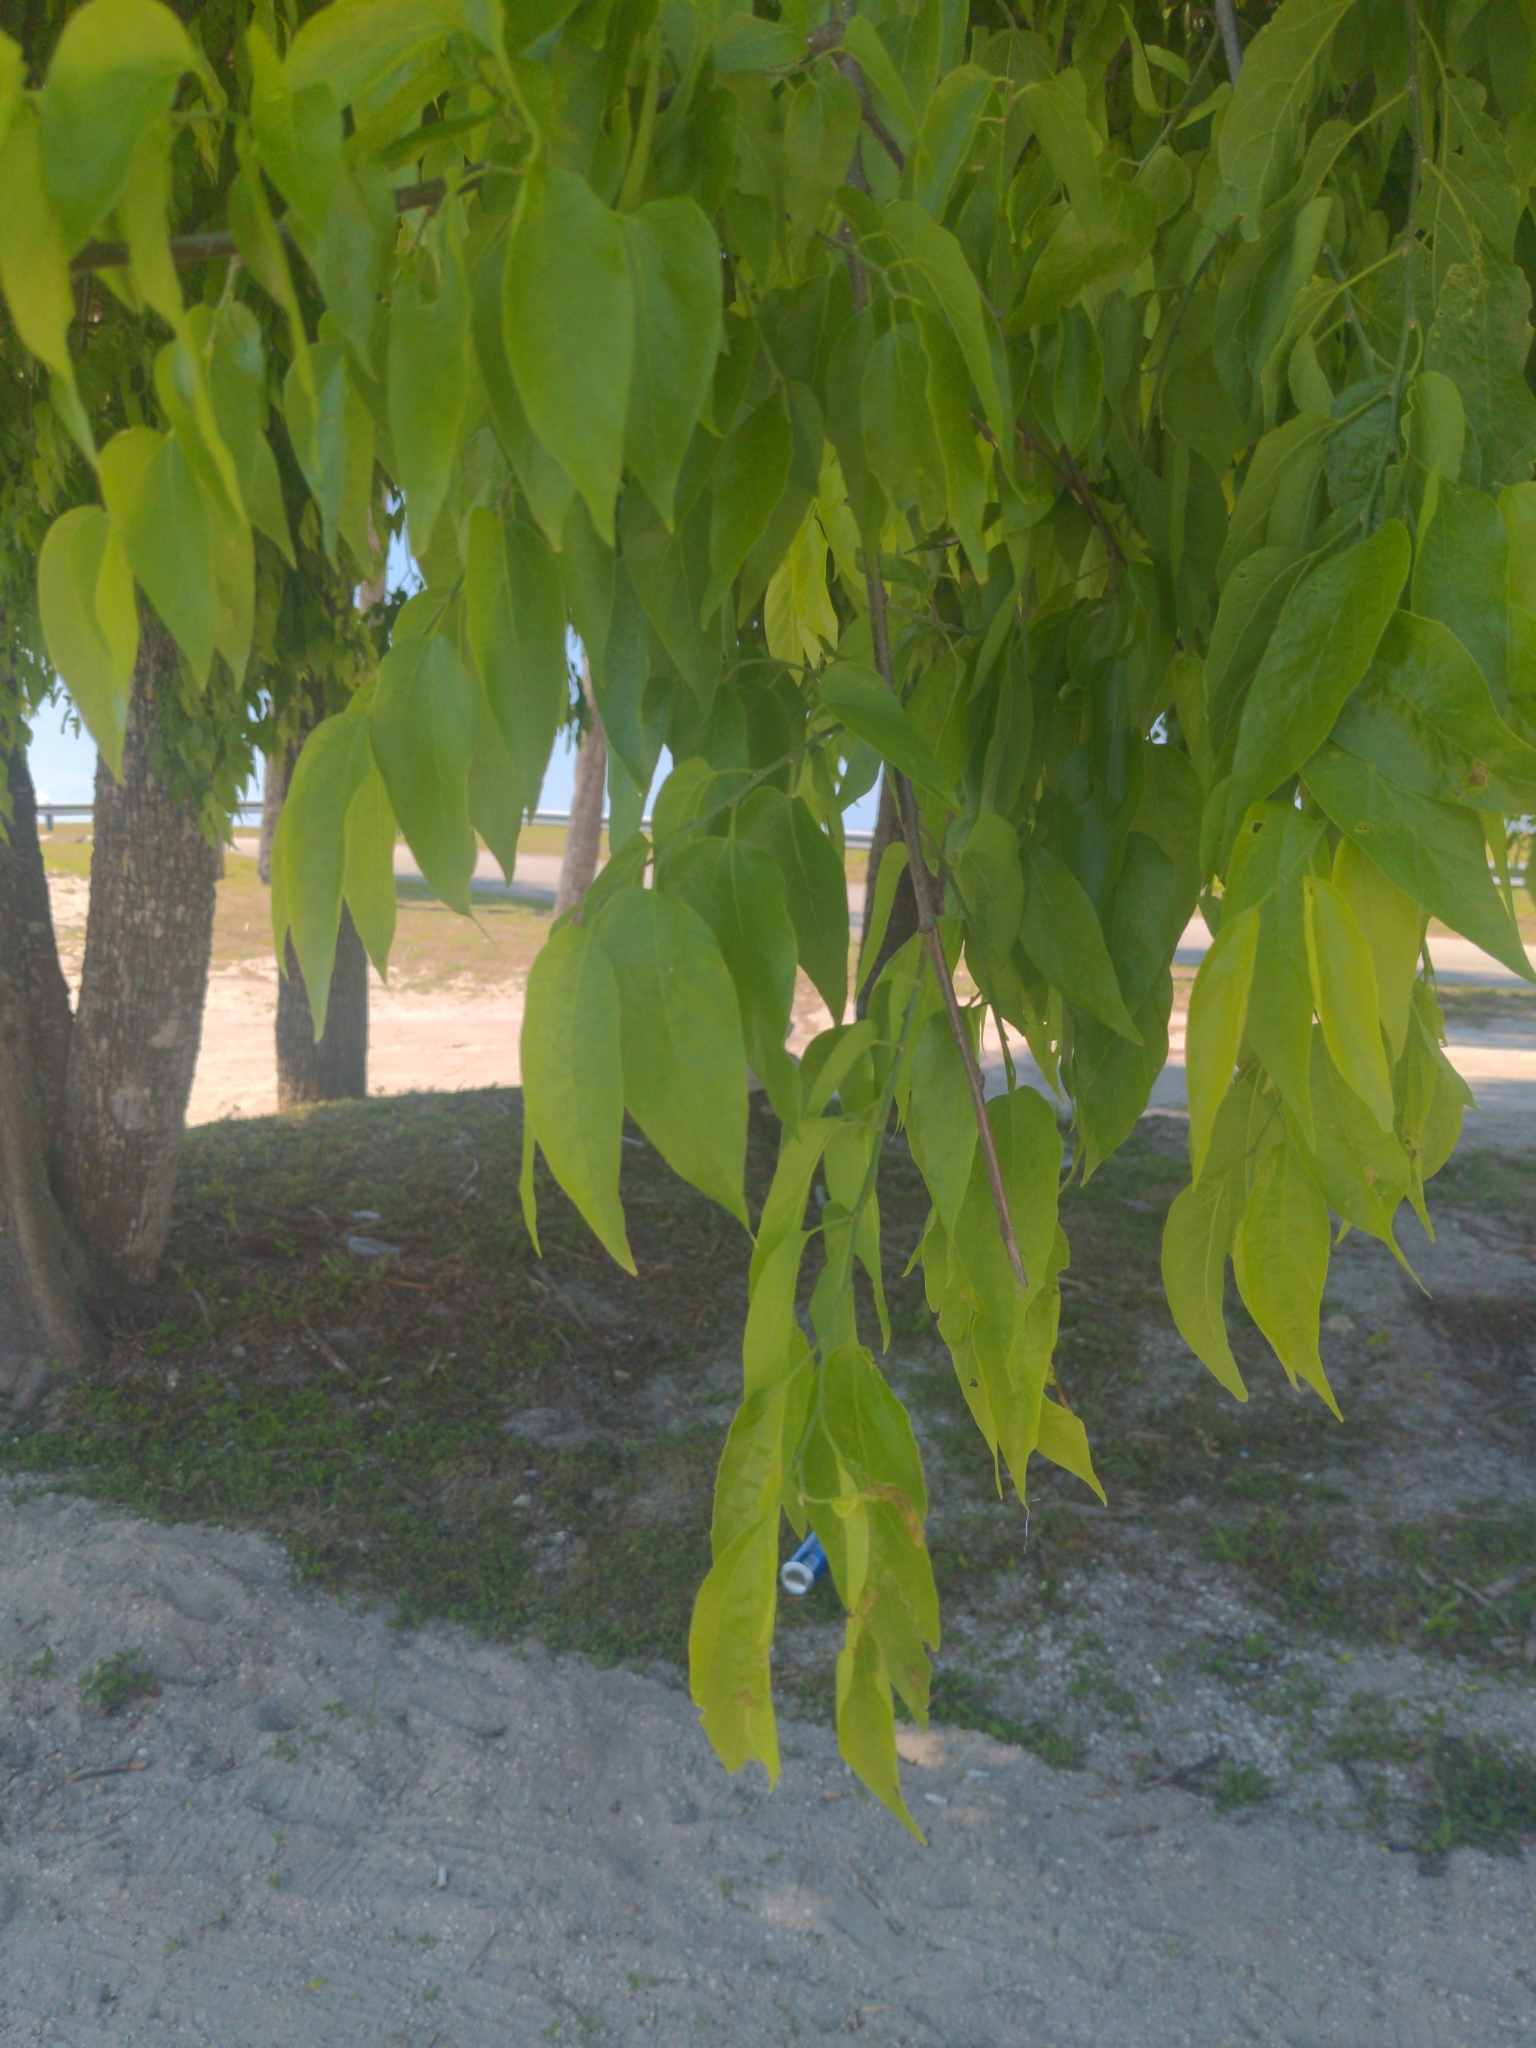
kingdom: Plantae
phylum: Tracheophyta
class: Magnoliopsida
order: Rosales
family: Cannabaceae
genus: Celtis
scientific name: Celtis laevigata
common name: Sugarberry
